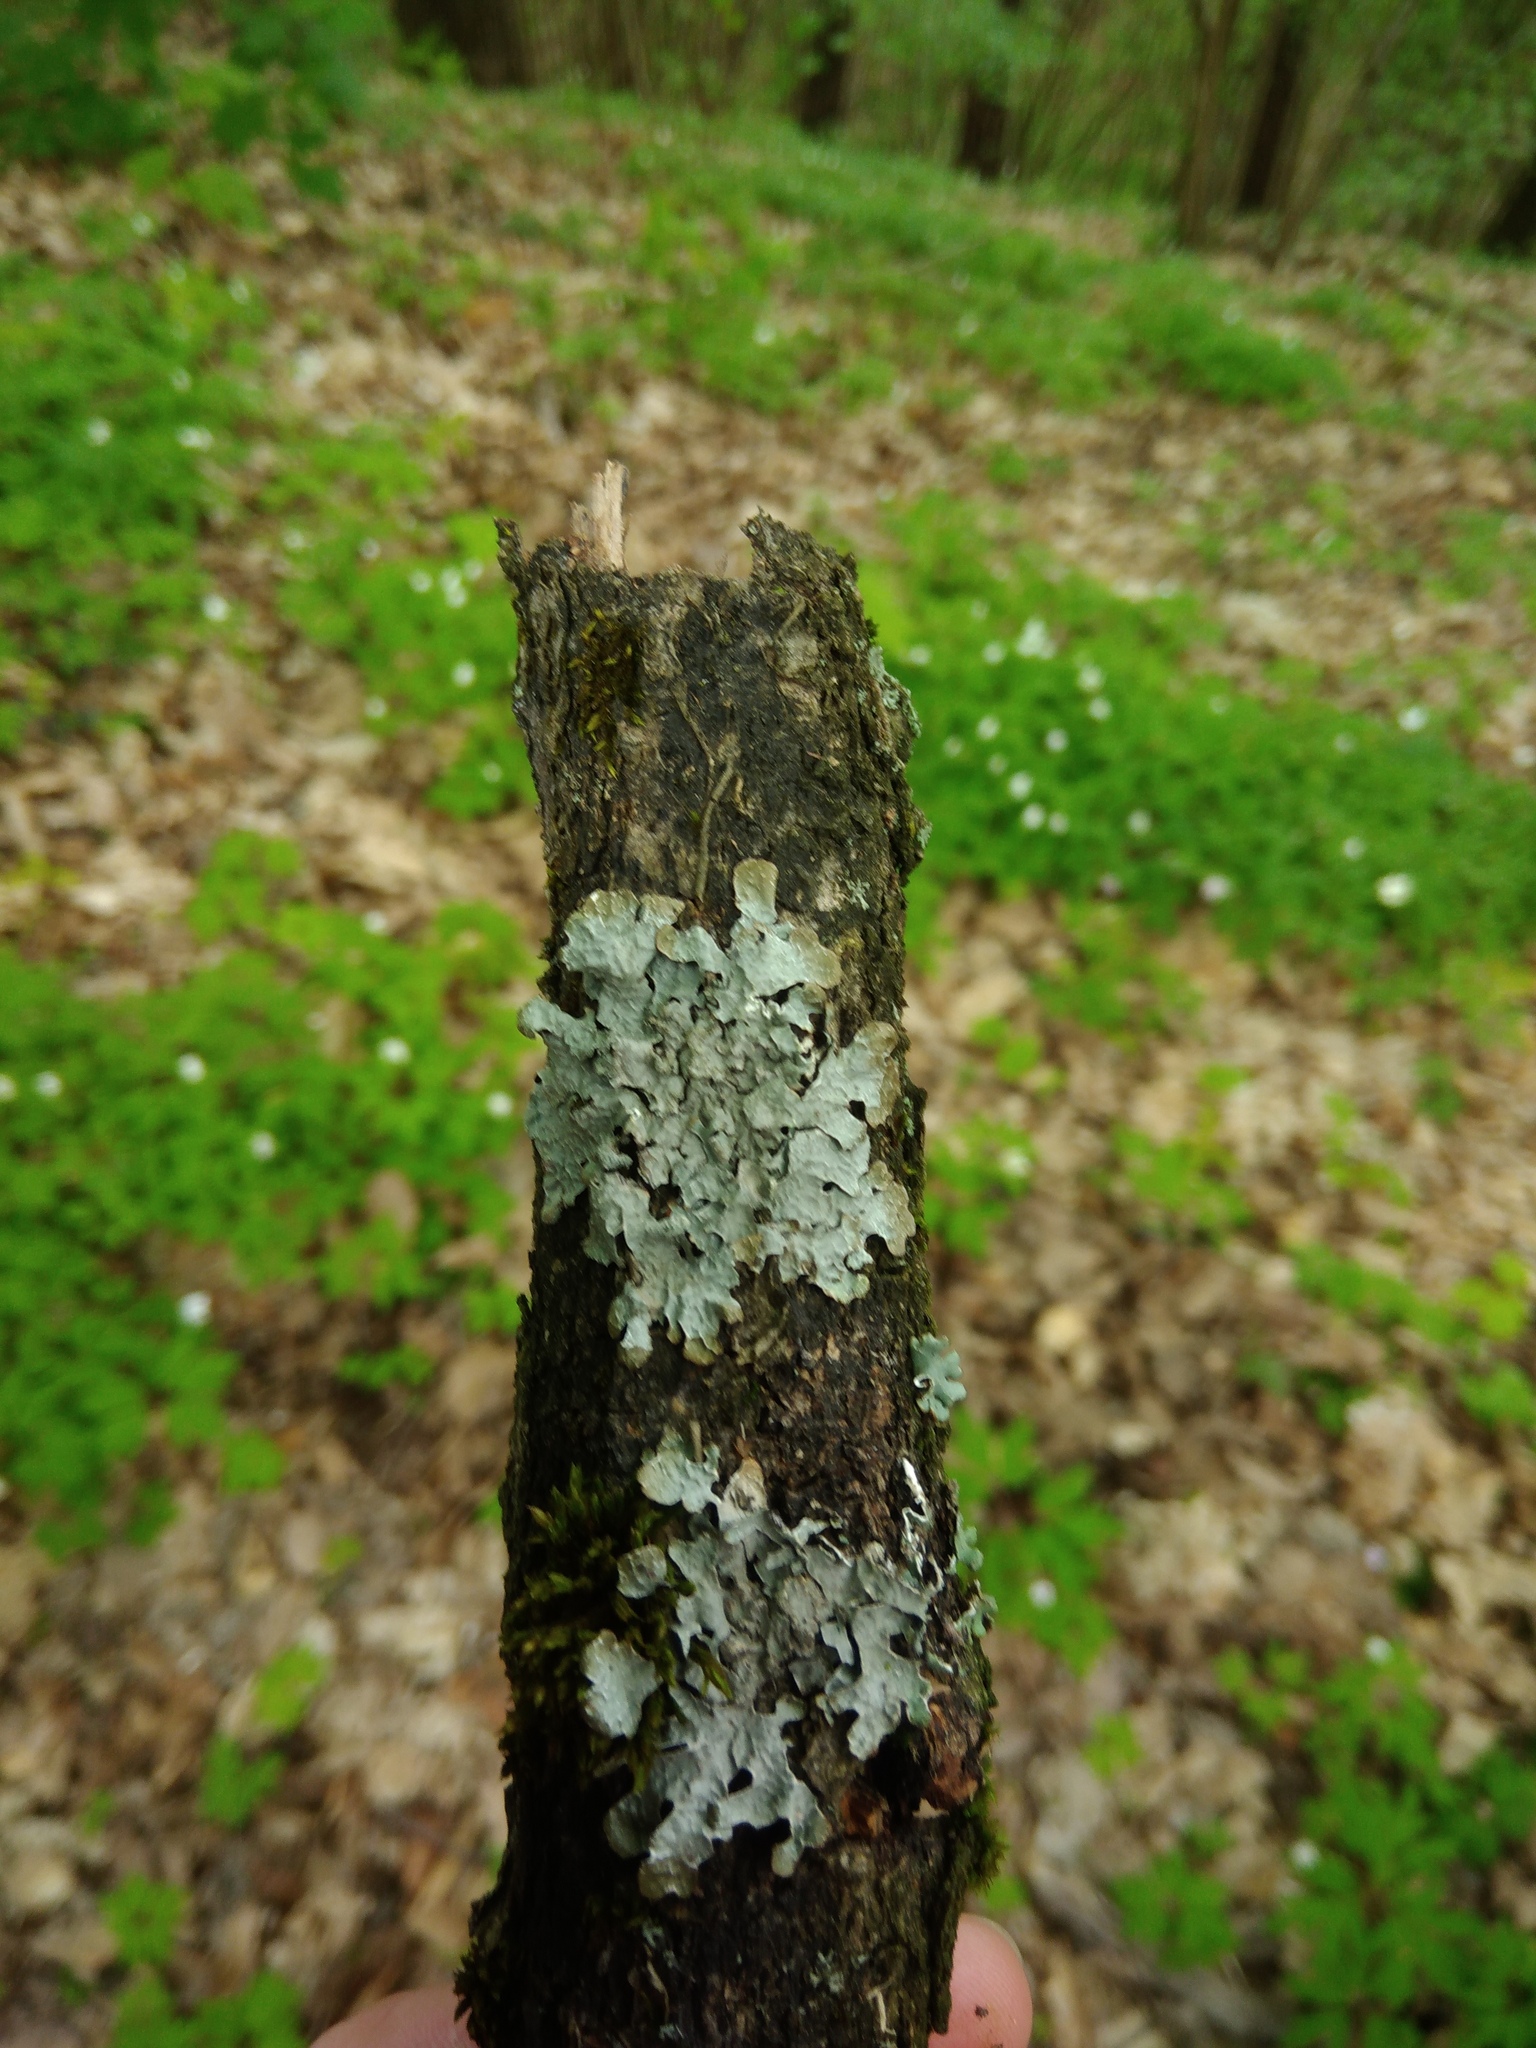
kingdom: Fungi
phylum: Ascomycota
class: Lecanoromycetes
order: Lecanorales
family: Parmeliaceae
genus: Parmelia
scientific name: Parmelia sulcata
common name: Netted shield lichen
